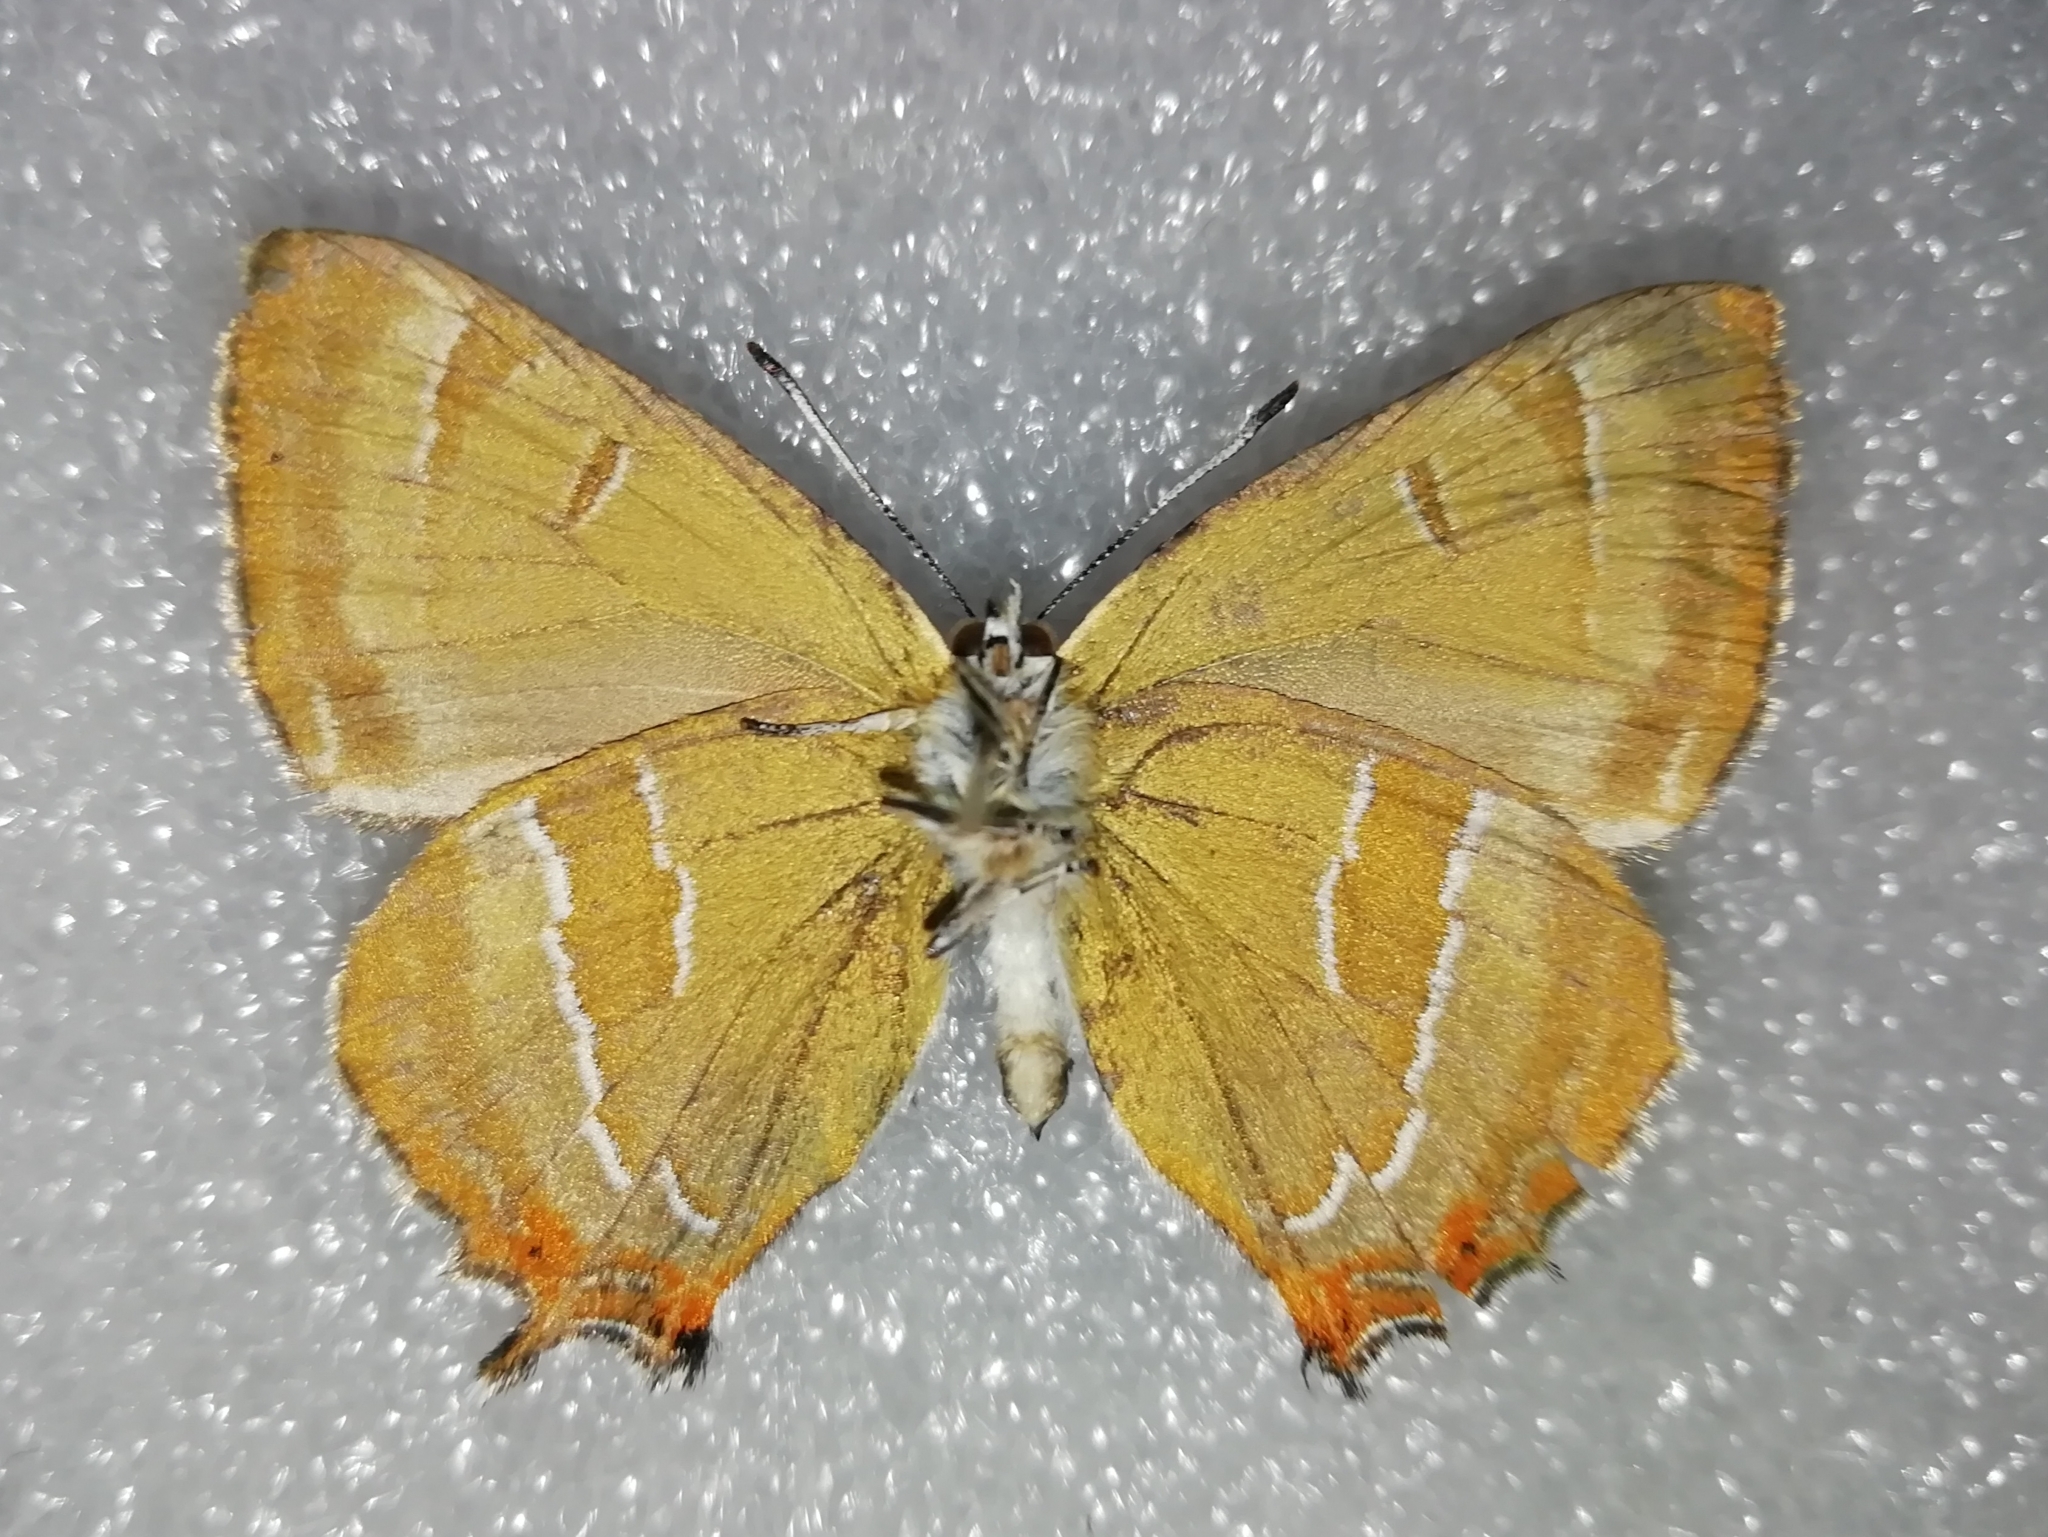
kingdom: Animalia
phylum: Arthropoda
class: Insecta
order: Lepidoptera
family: Lycaenidae
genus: Thecla
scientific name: Thecla betulae
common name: Brown hairstreak
